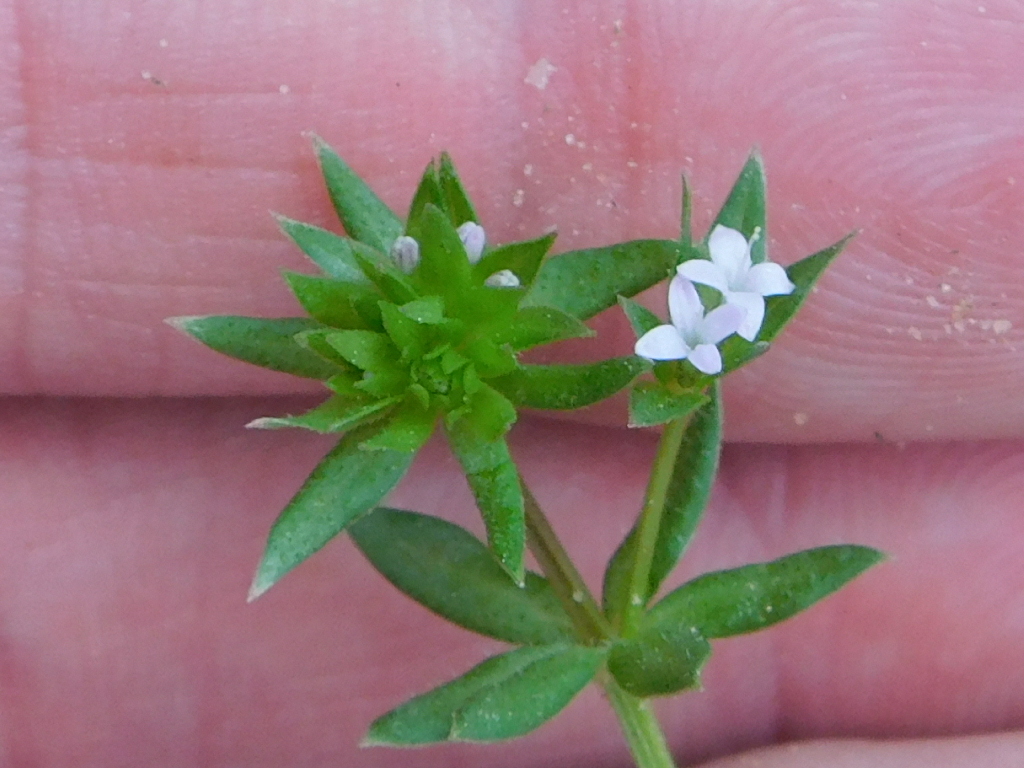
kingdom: Plantae
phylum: Tracheophyta
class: Magnoliopsida
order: Gentianales
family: Rubiaceae
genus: Sherardia
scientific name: Sherardia arvensis
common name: Field madder
